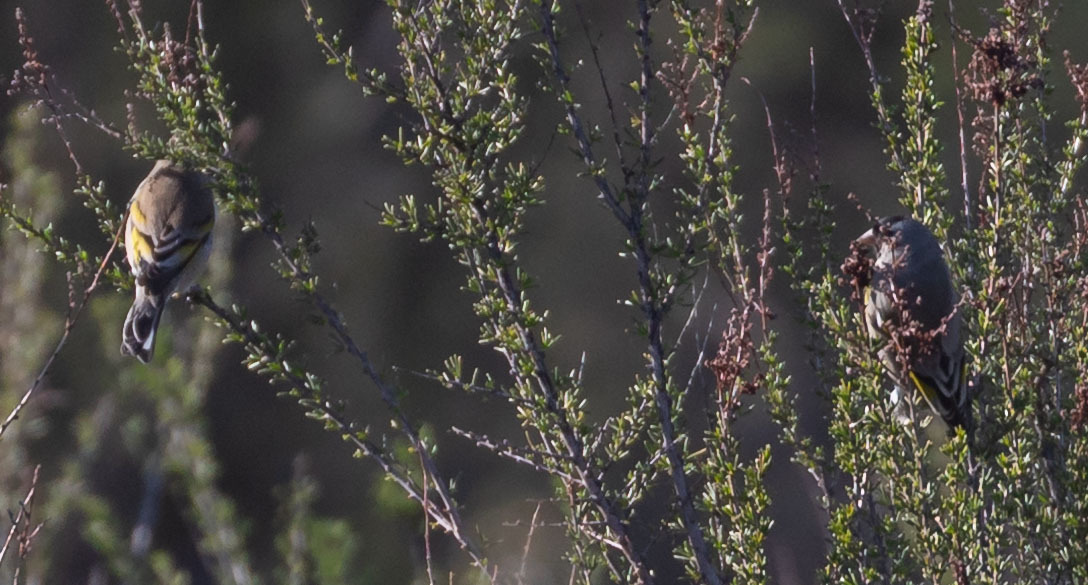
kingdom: Animalia
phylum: Chordata
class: Aves
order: Passeriformes
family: Fringillidae
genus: Spinus
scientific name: Spinus lawrencei
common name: Lawrence's goldfinch
